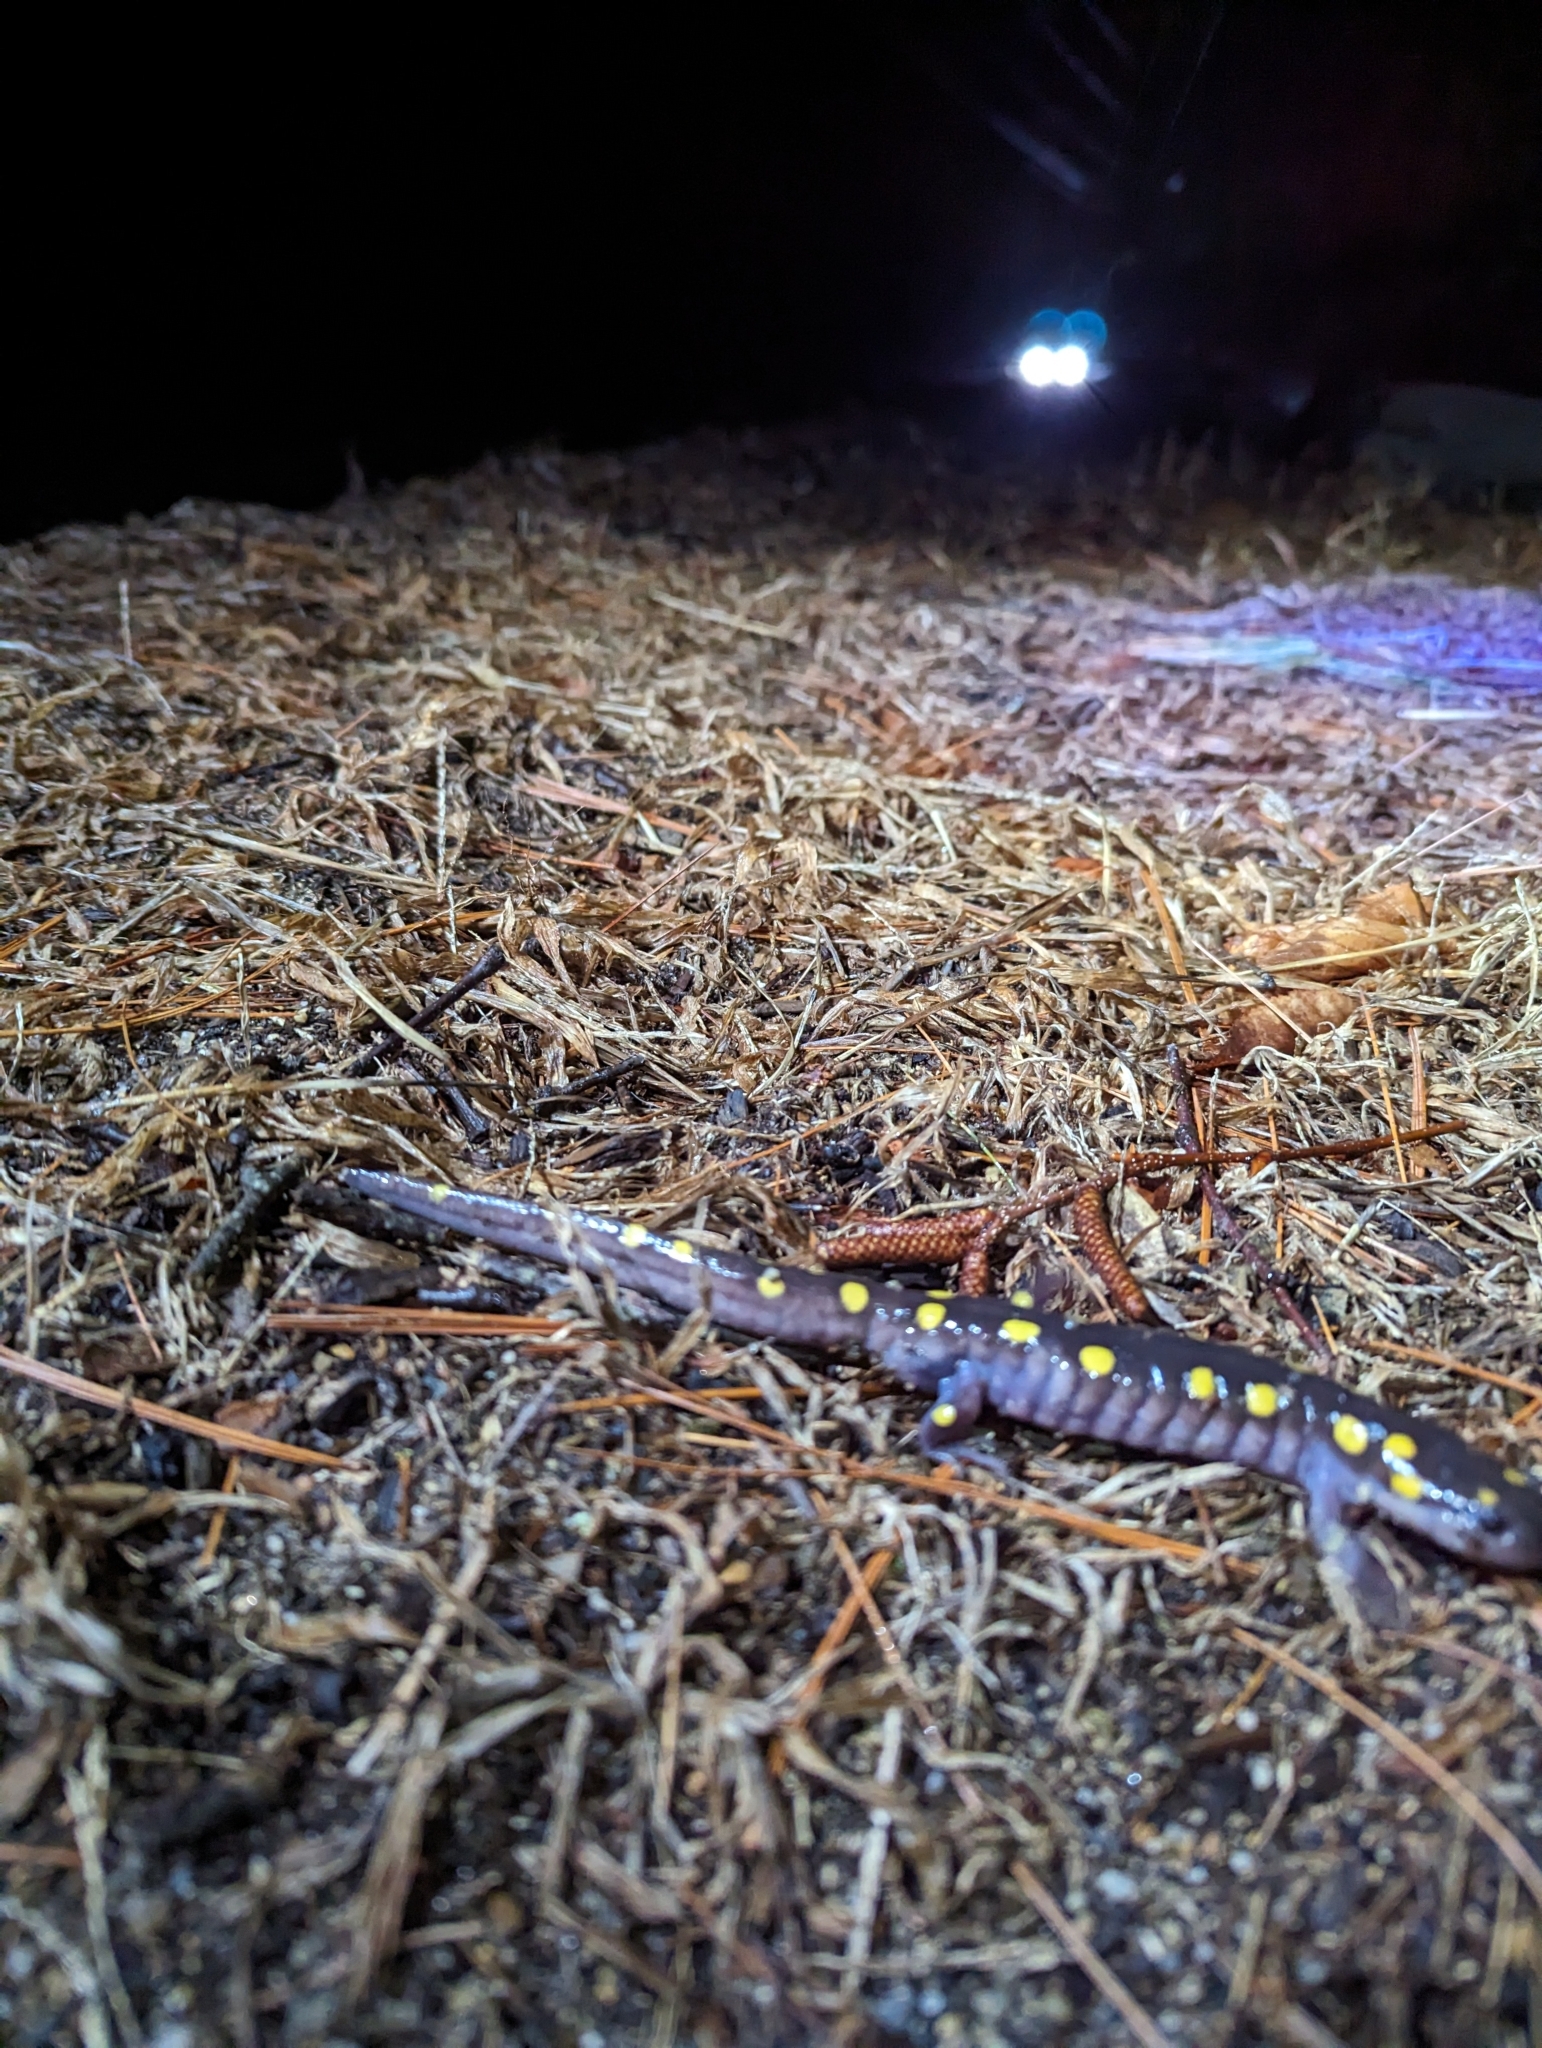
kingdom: Animalia
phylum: Chordata
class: Amphibia
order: Caudata
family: Ambystomatidae
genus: Ambystoma
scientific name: Ambystoma maculatum
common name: Spotted salamander
